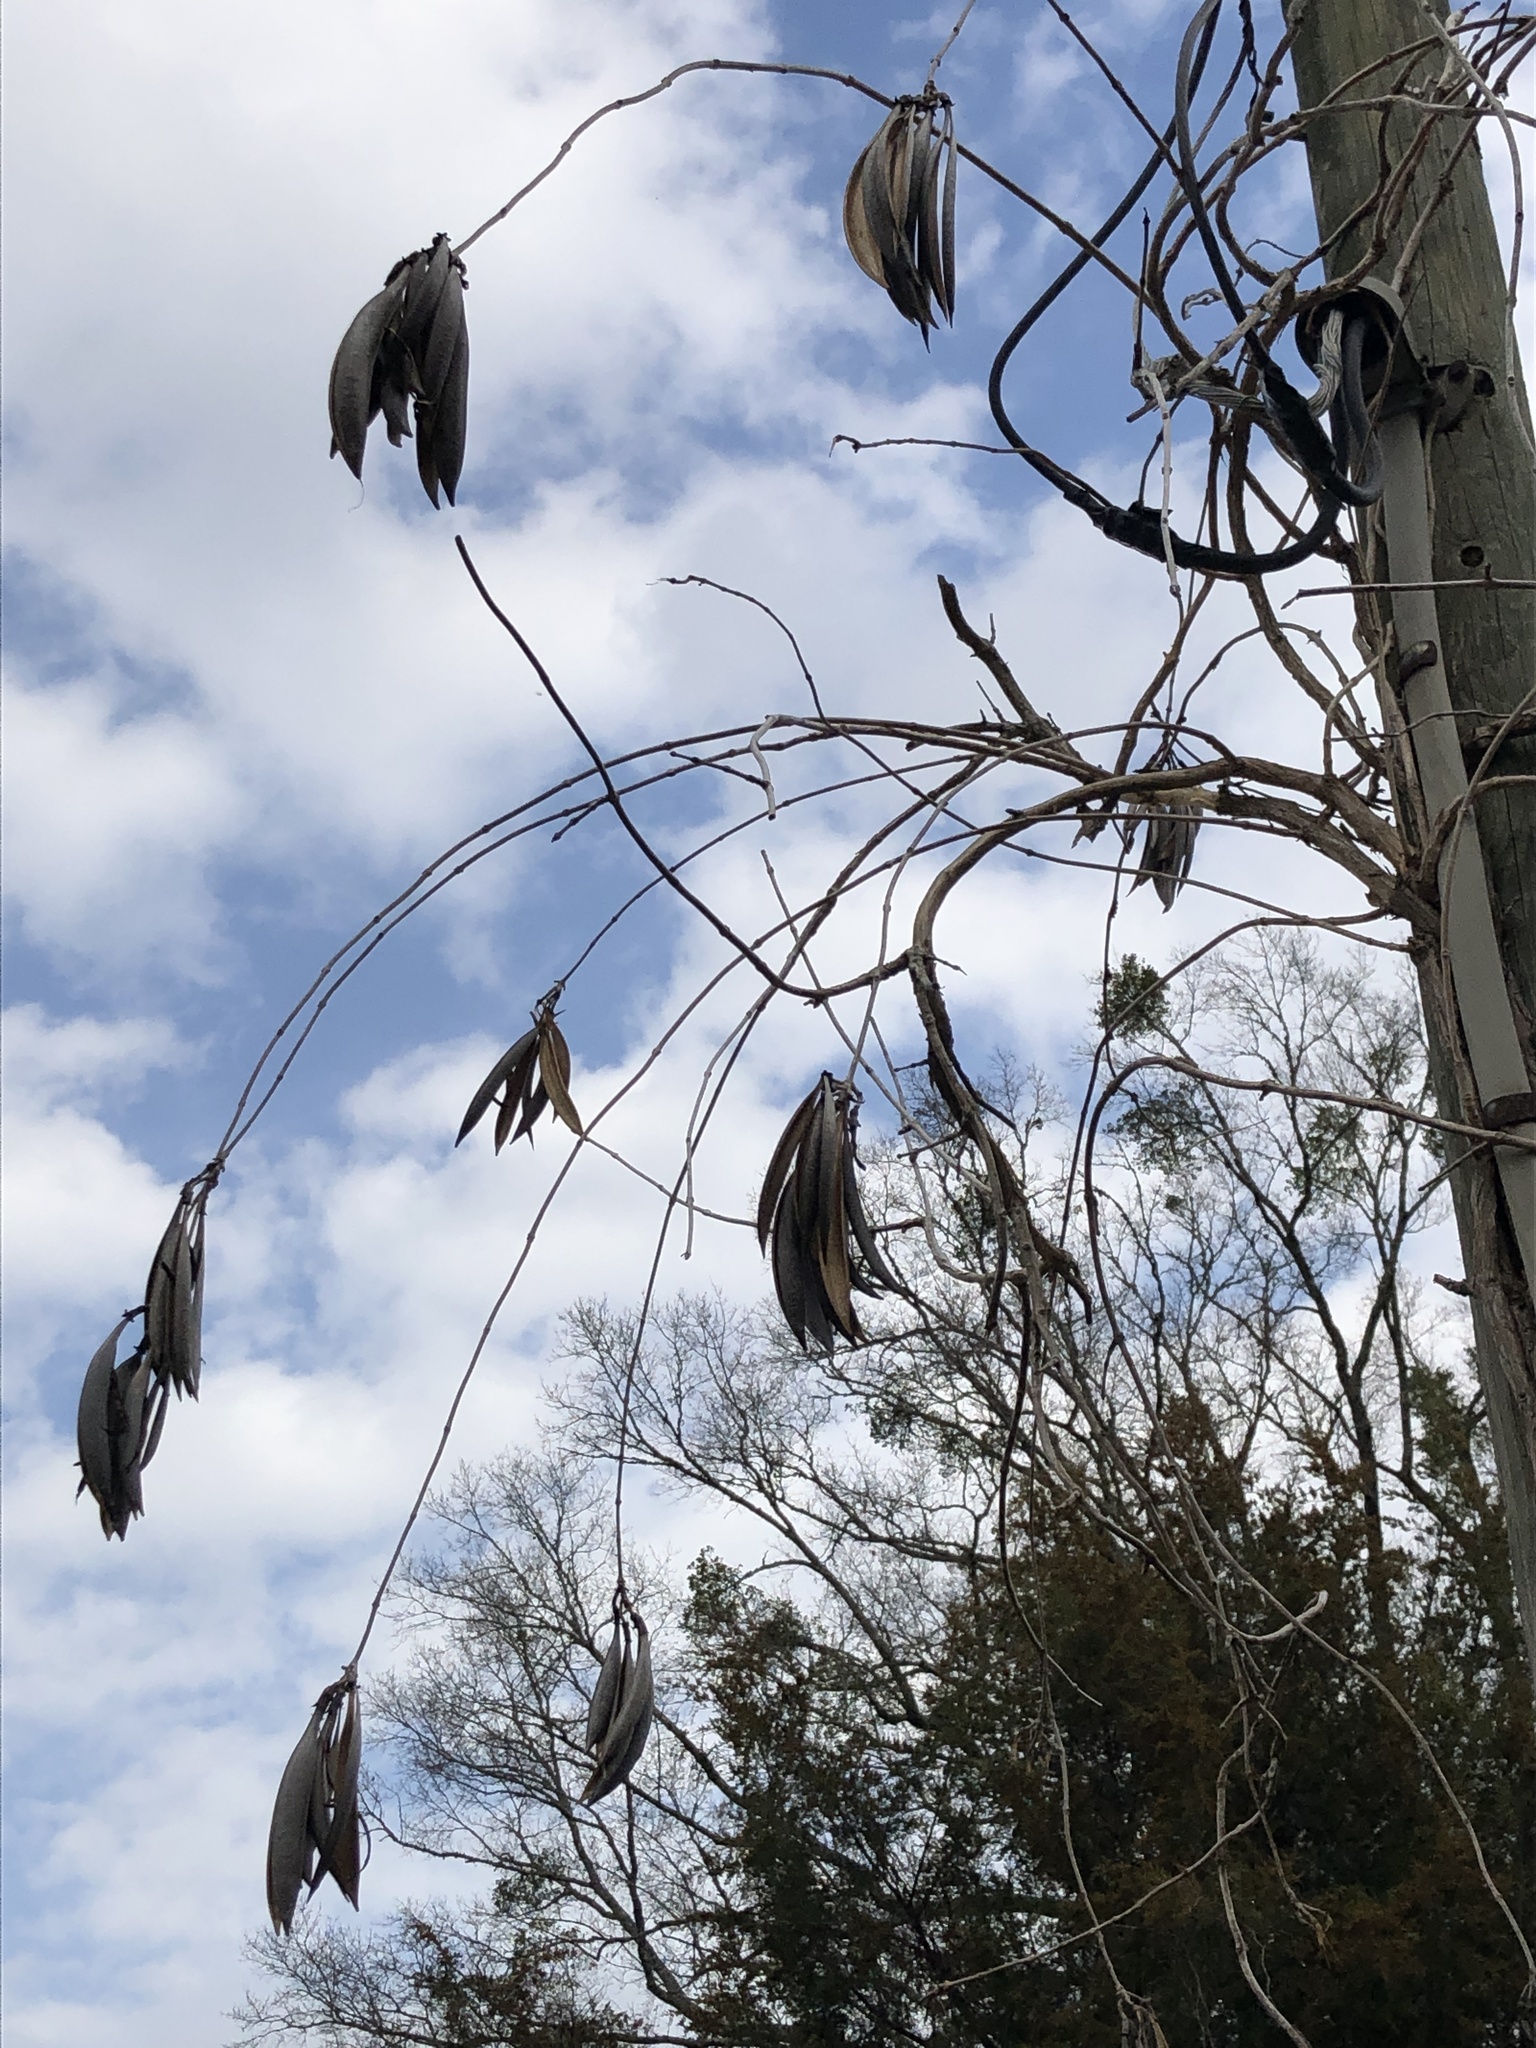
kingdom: Plantae
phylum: Tracheophyta
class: Magnoliopsida
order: Lamiales
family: Bignoniaceae
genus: Campsis
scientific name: Campsis radicans
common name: Trumpet-creeper
